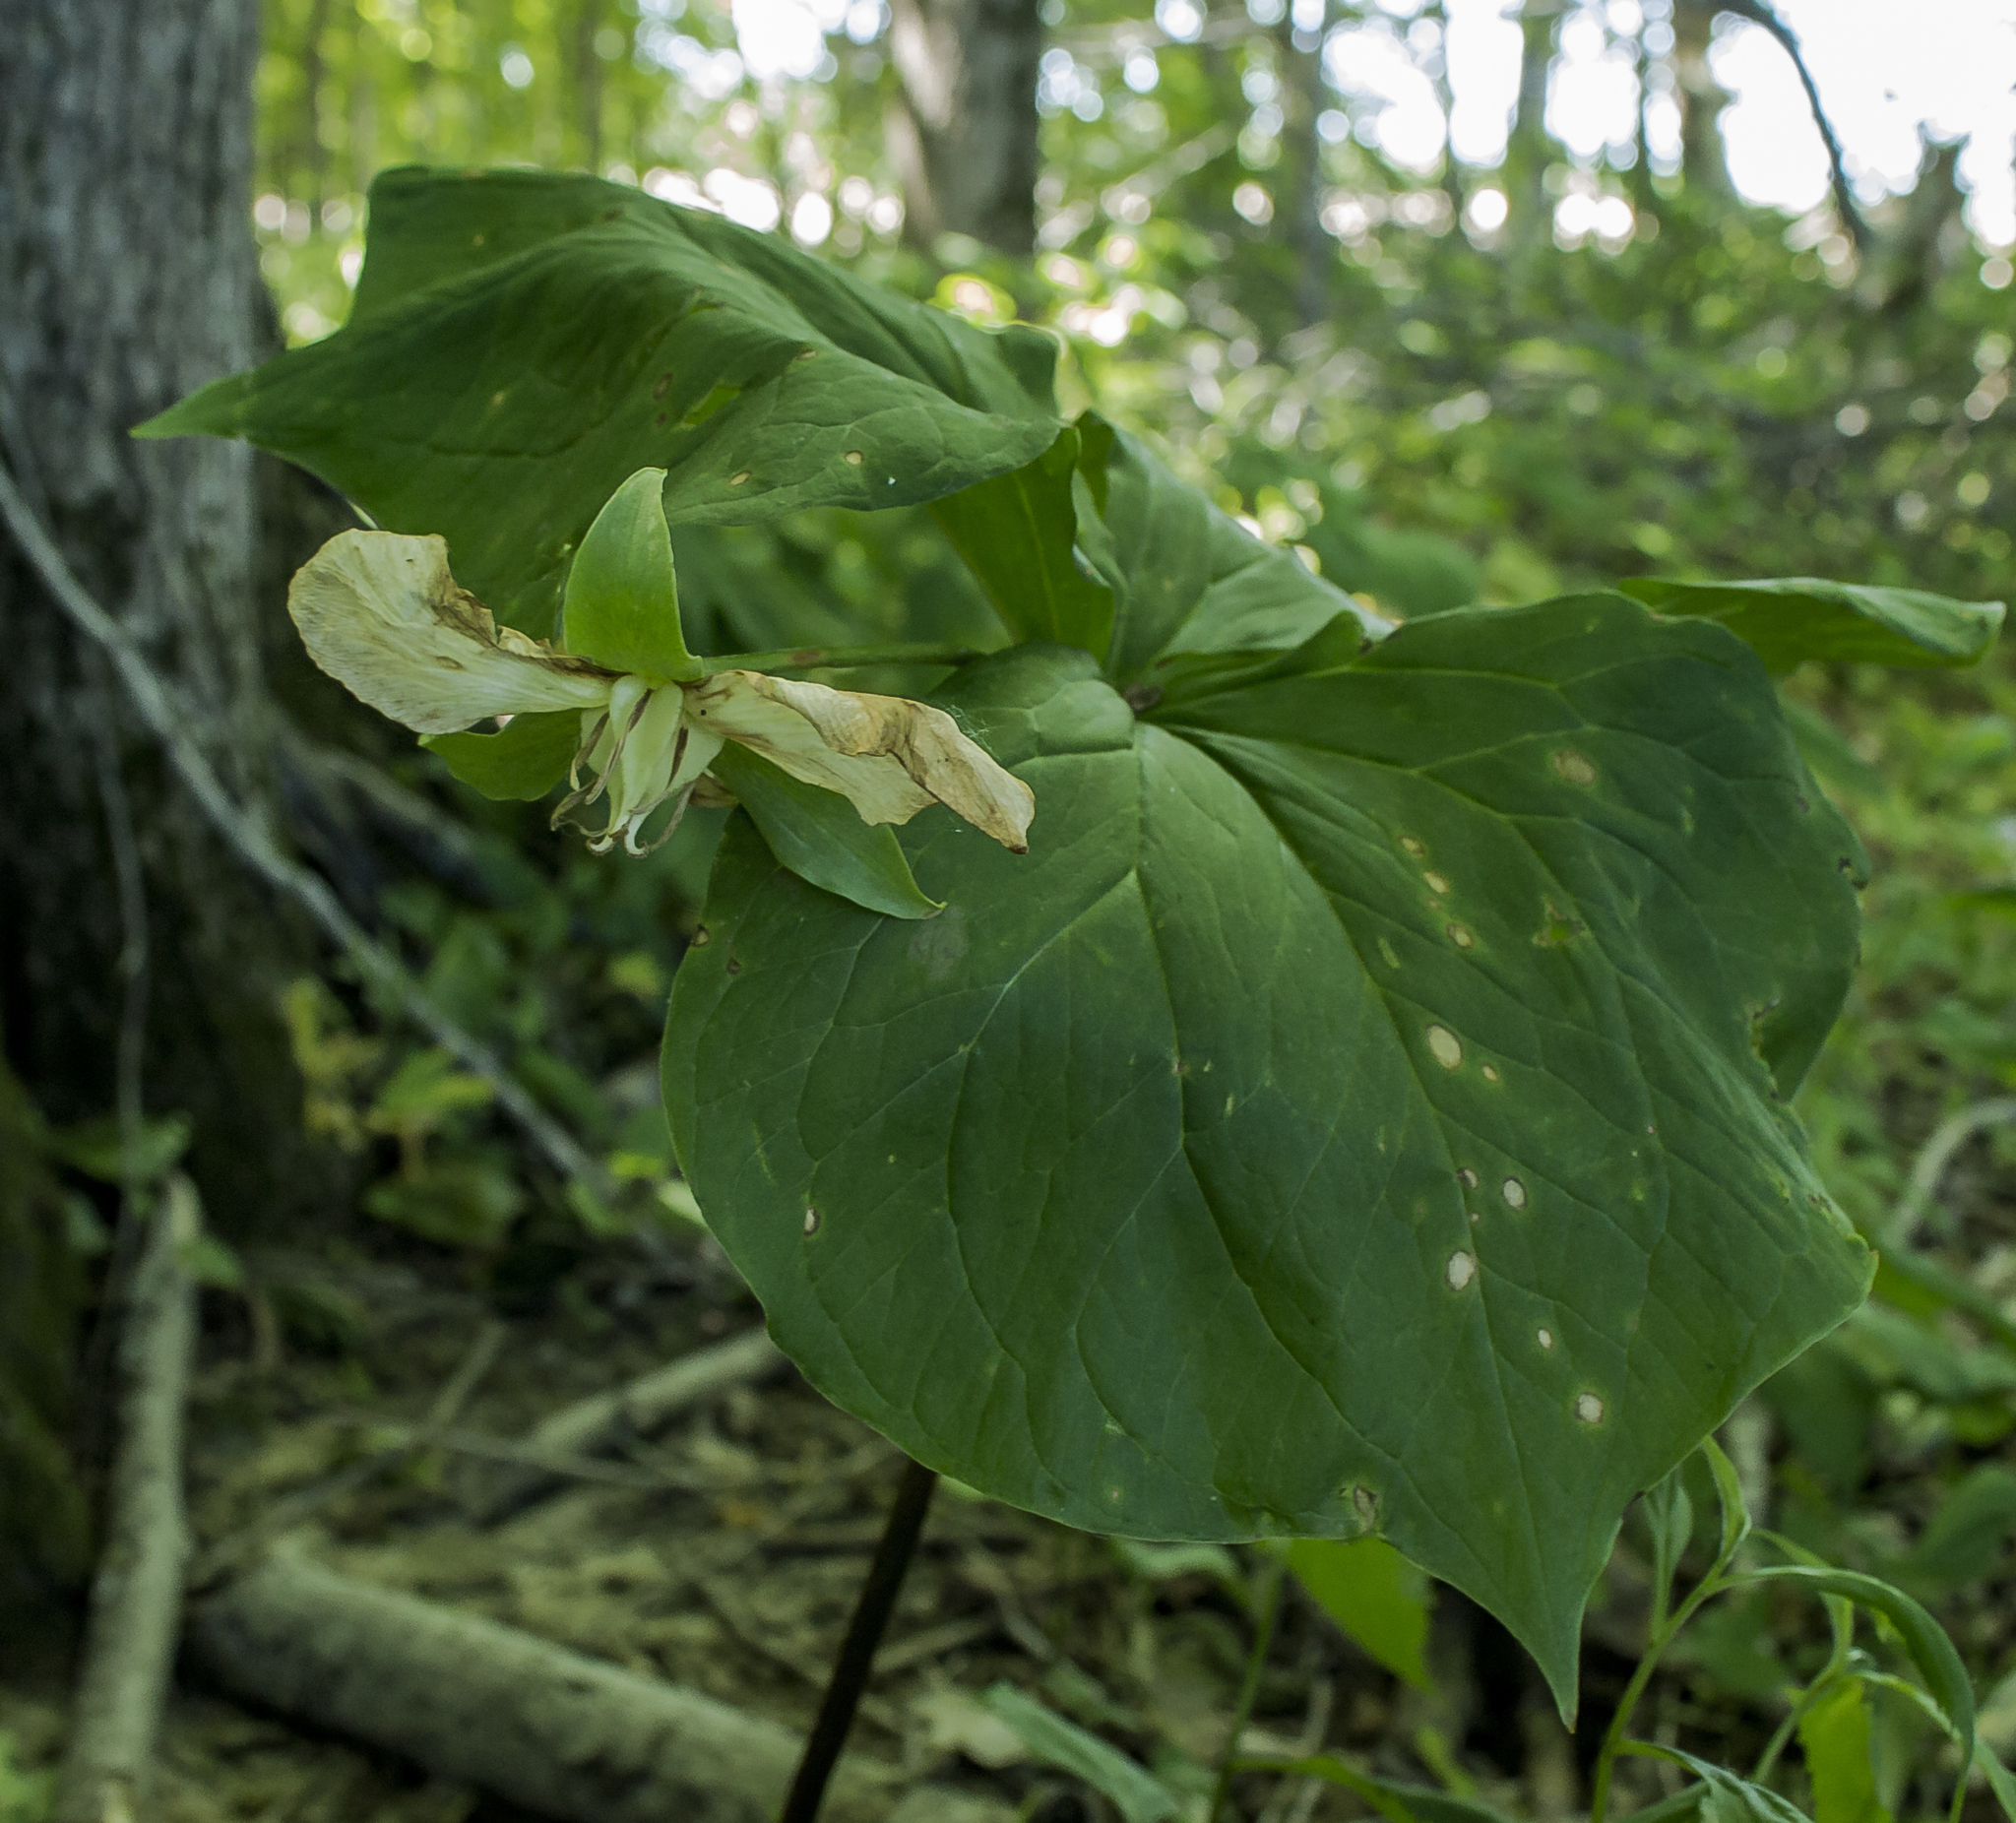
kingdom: Plantae
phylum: Tracheophyta
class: Liliopsida
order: Liliales
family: Melanthiaceae
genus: Trillium
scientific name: Trillium flexipes
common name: Drooping trillium
